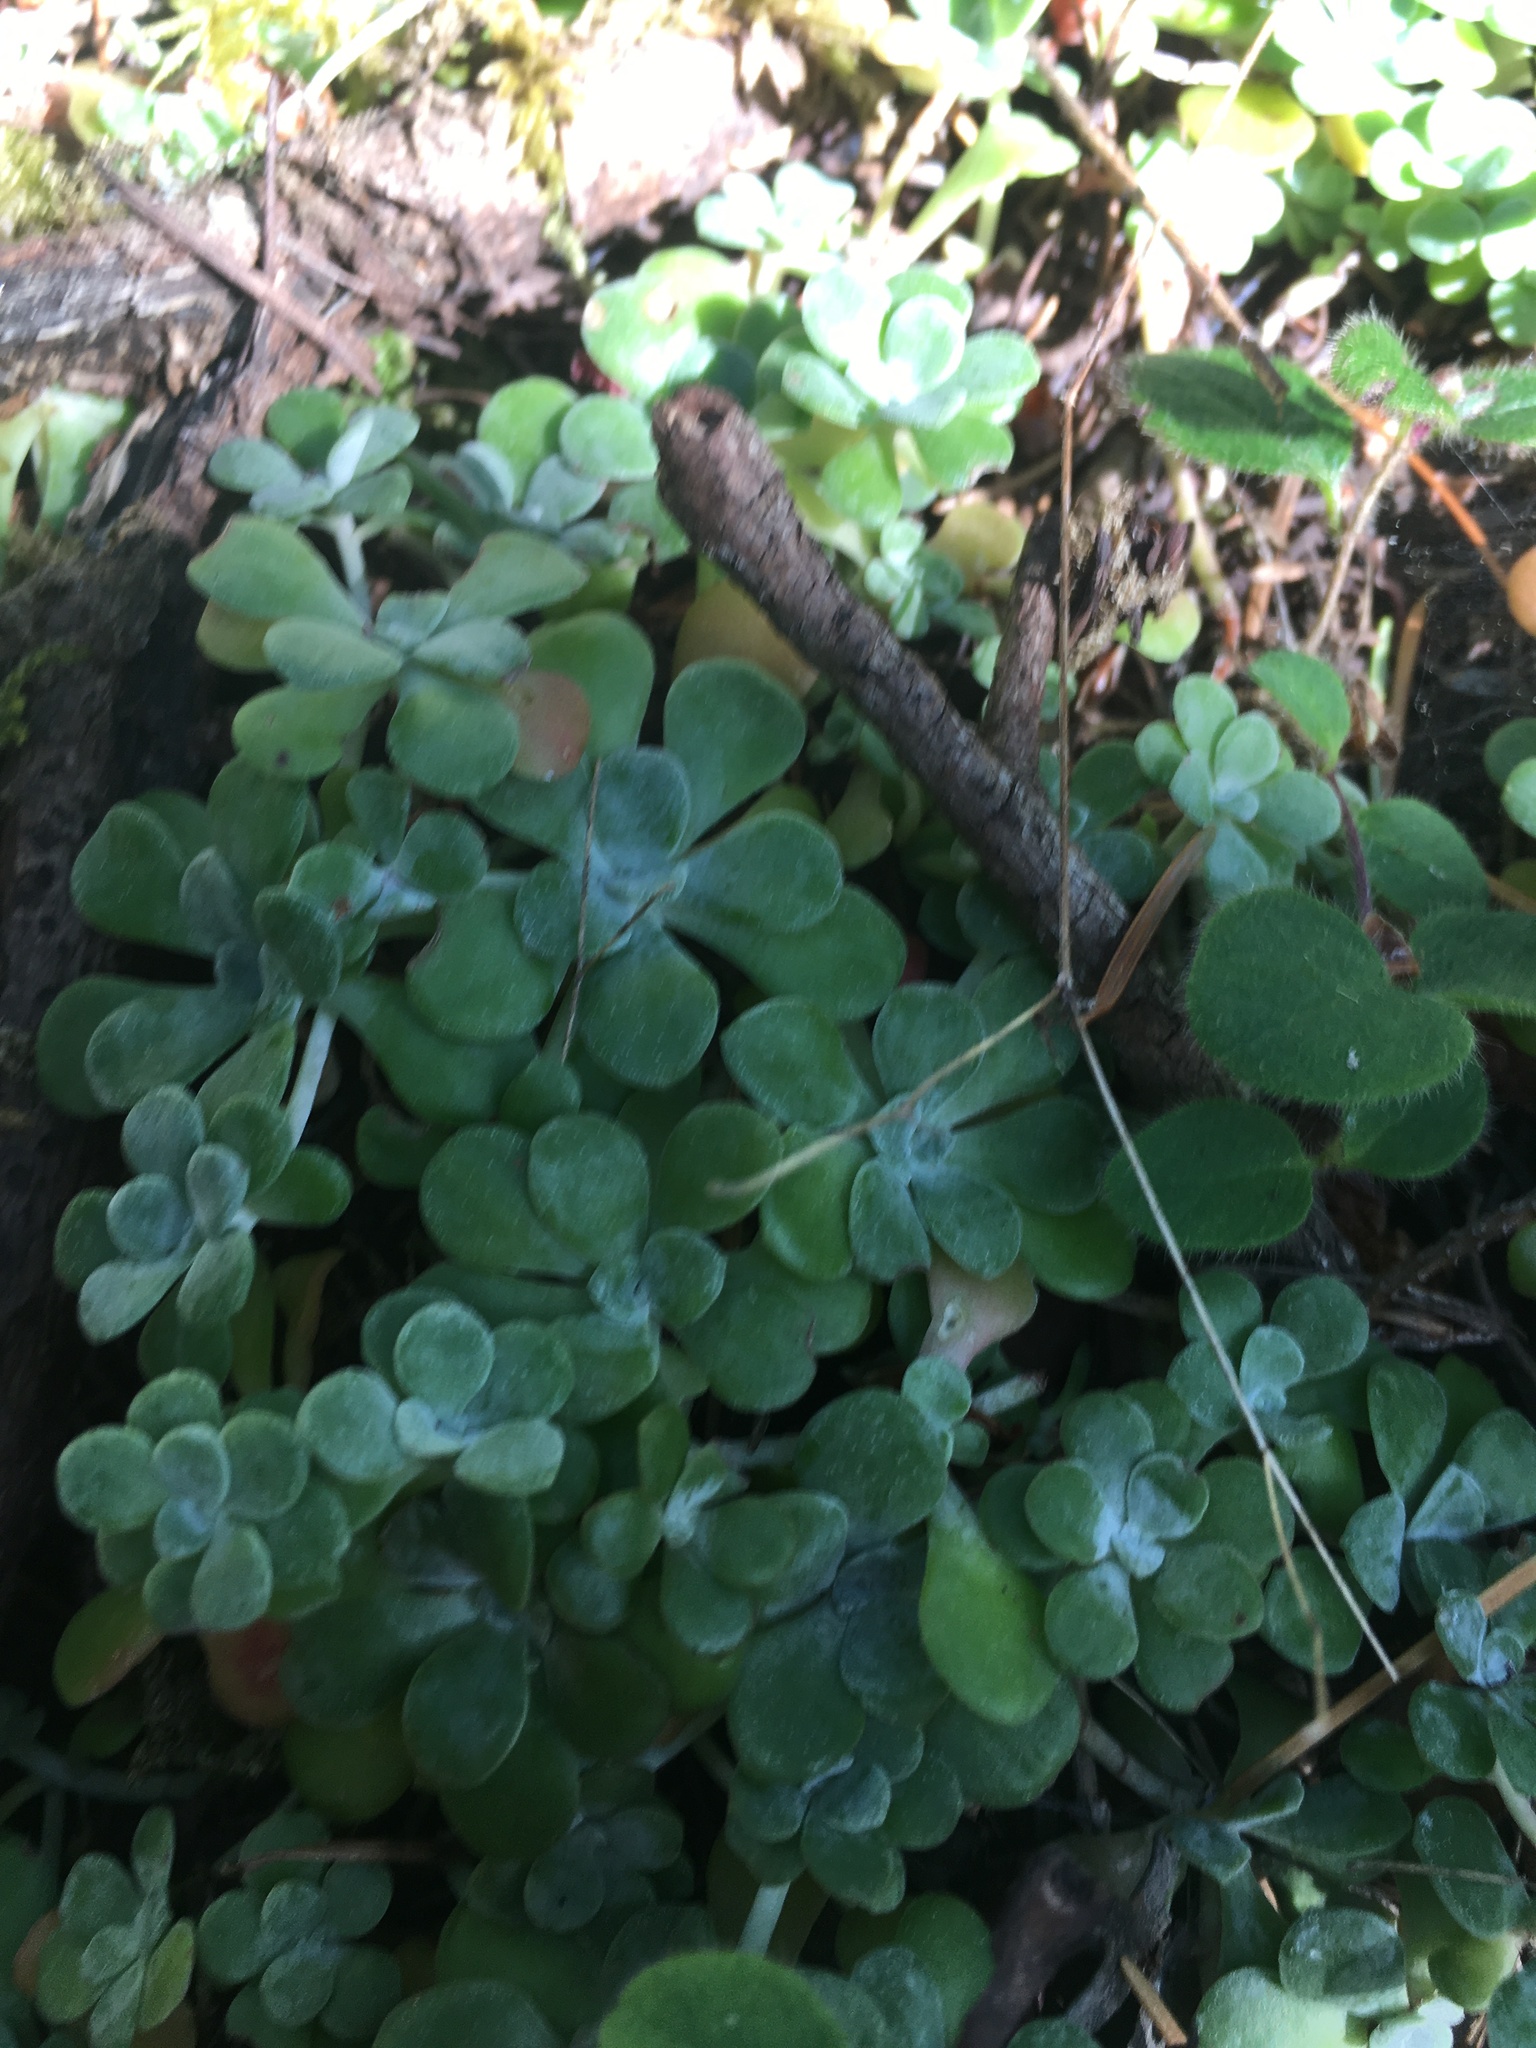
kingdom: Plantae
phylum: Tracheophyta
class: Magnoliopsida
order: Saxifragales
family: Crassulaceae
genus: Sedum
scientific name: Sedum spathulifolium
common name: Colorado stonecrop
